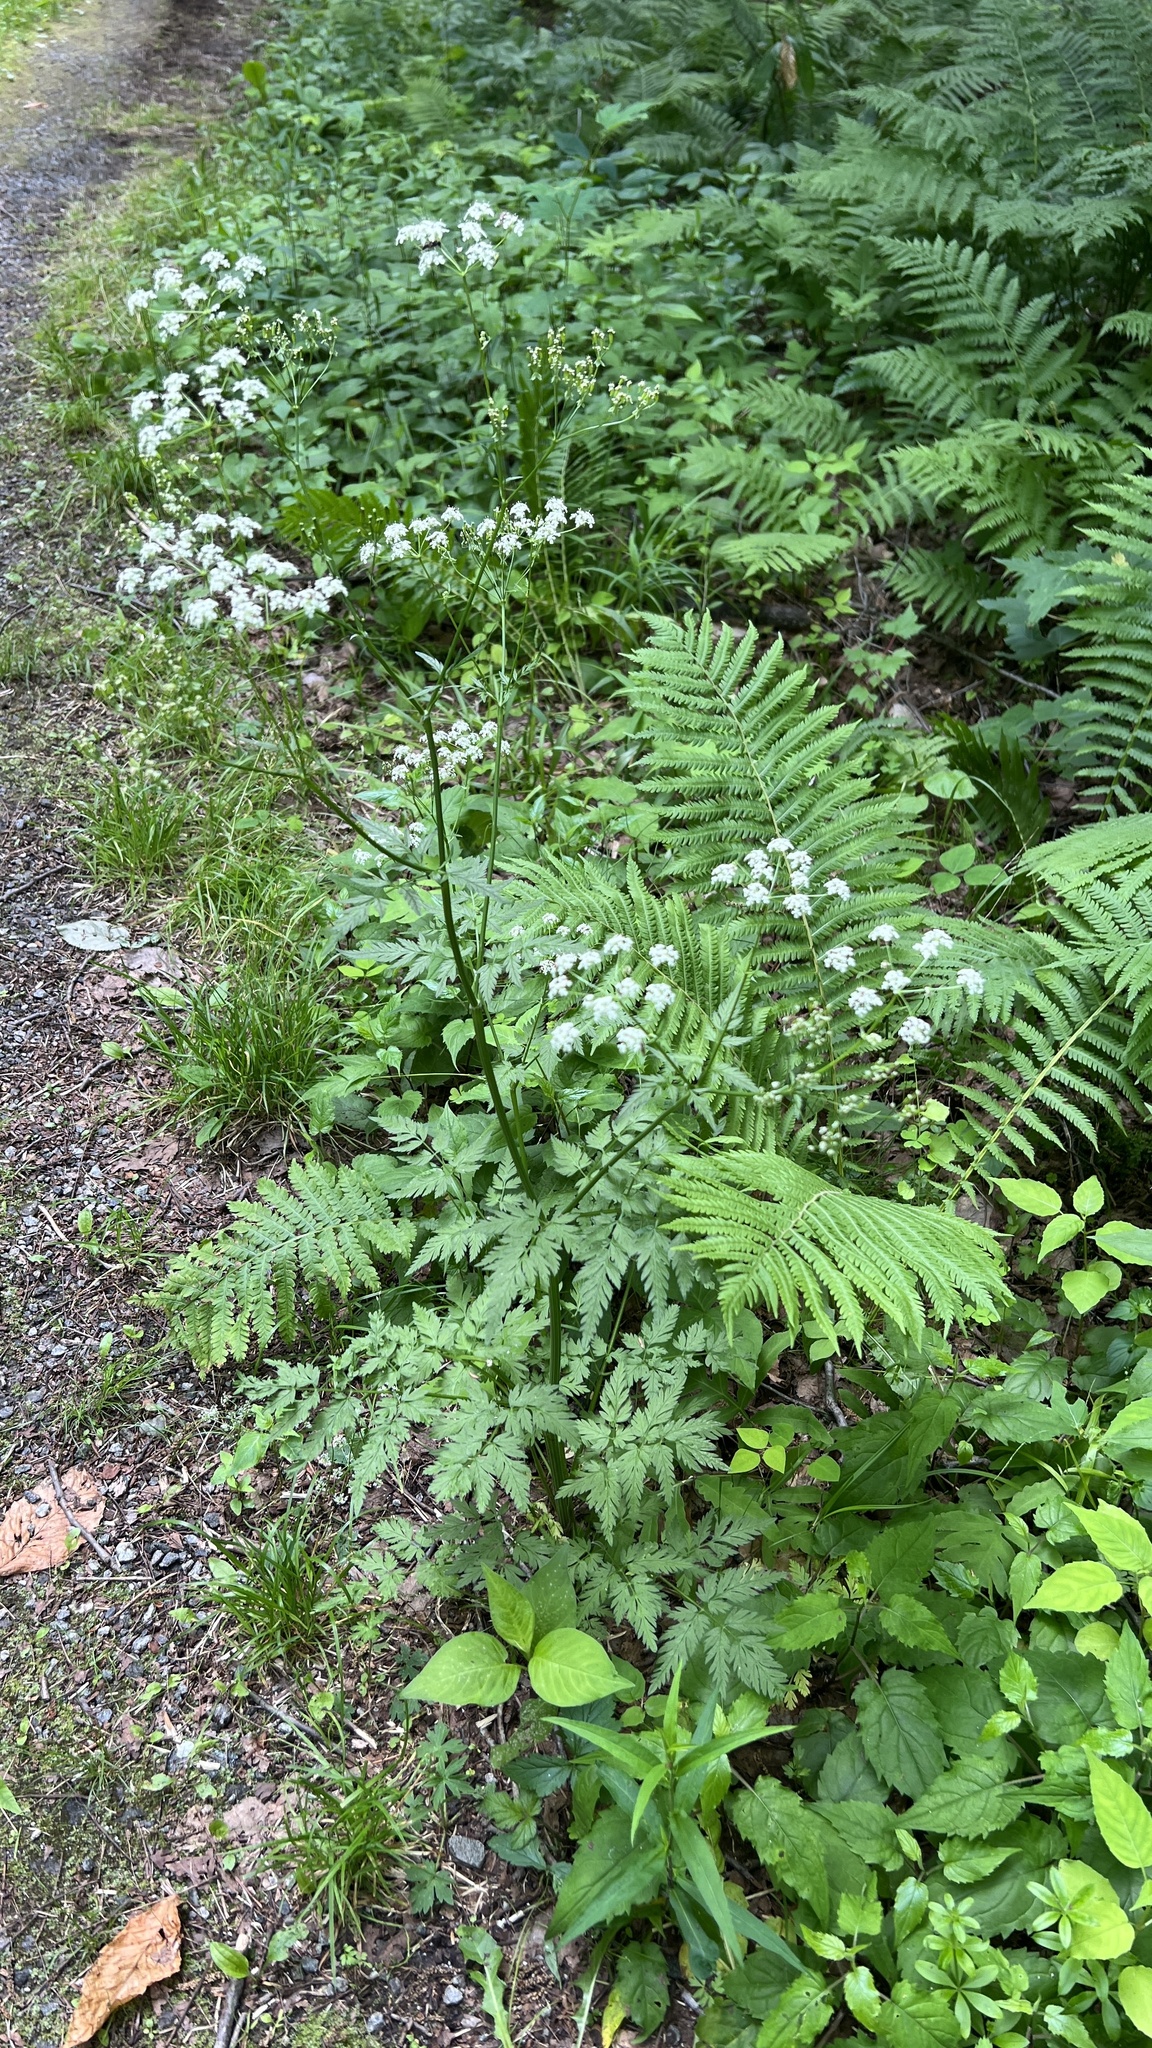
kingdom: Plantae
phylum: Tracheophyta
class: Magnoliopsida
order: Apiales
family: Apiaceae
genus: Anthriscus
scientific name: Anthriscus sylvestris
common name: Cow parsley
